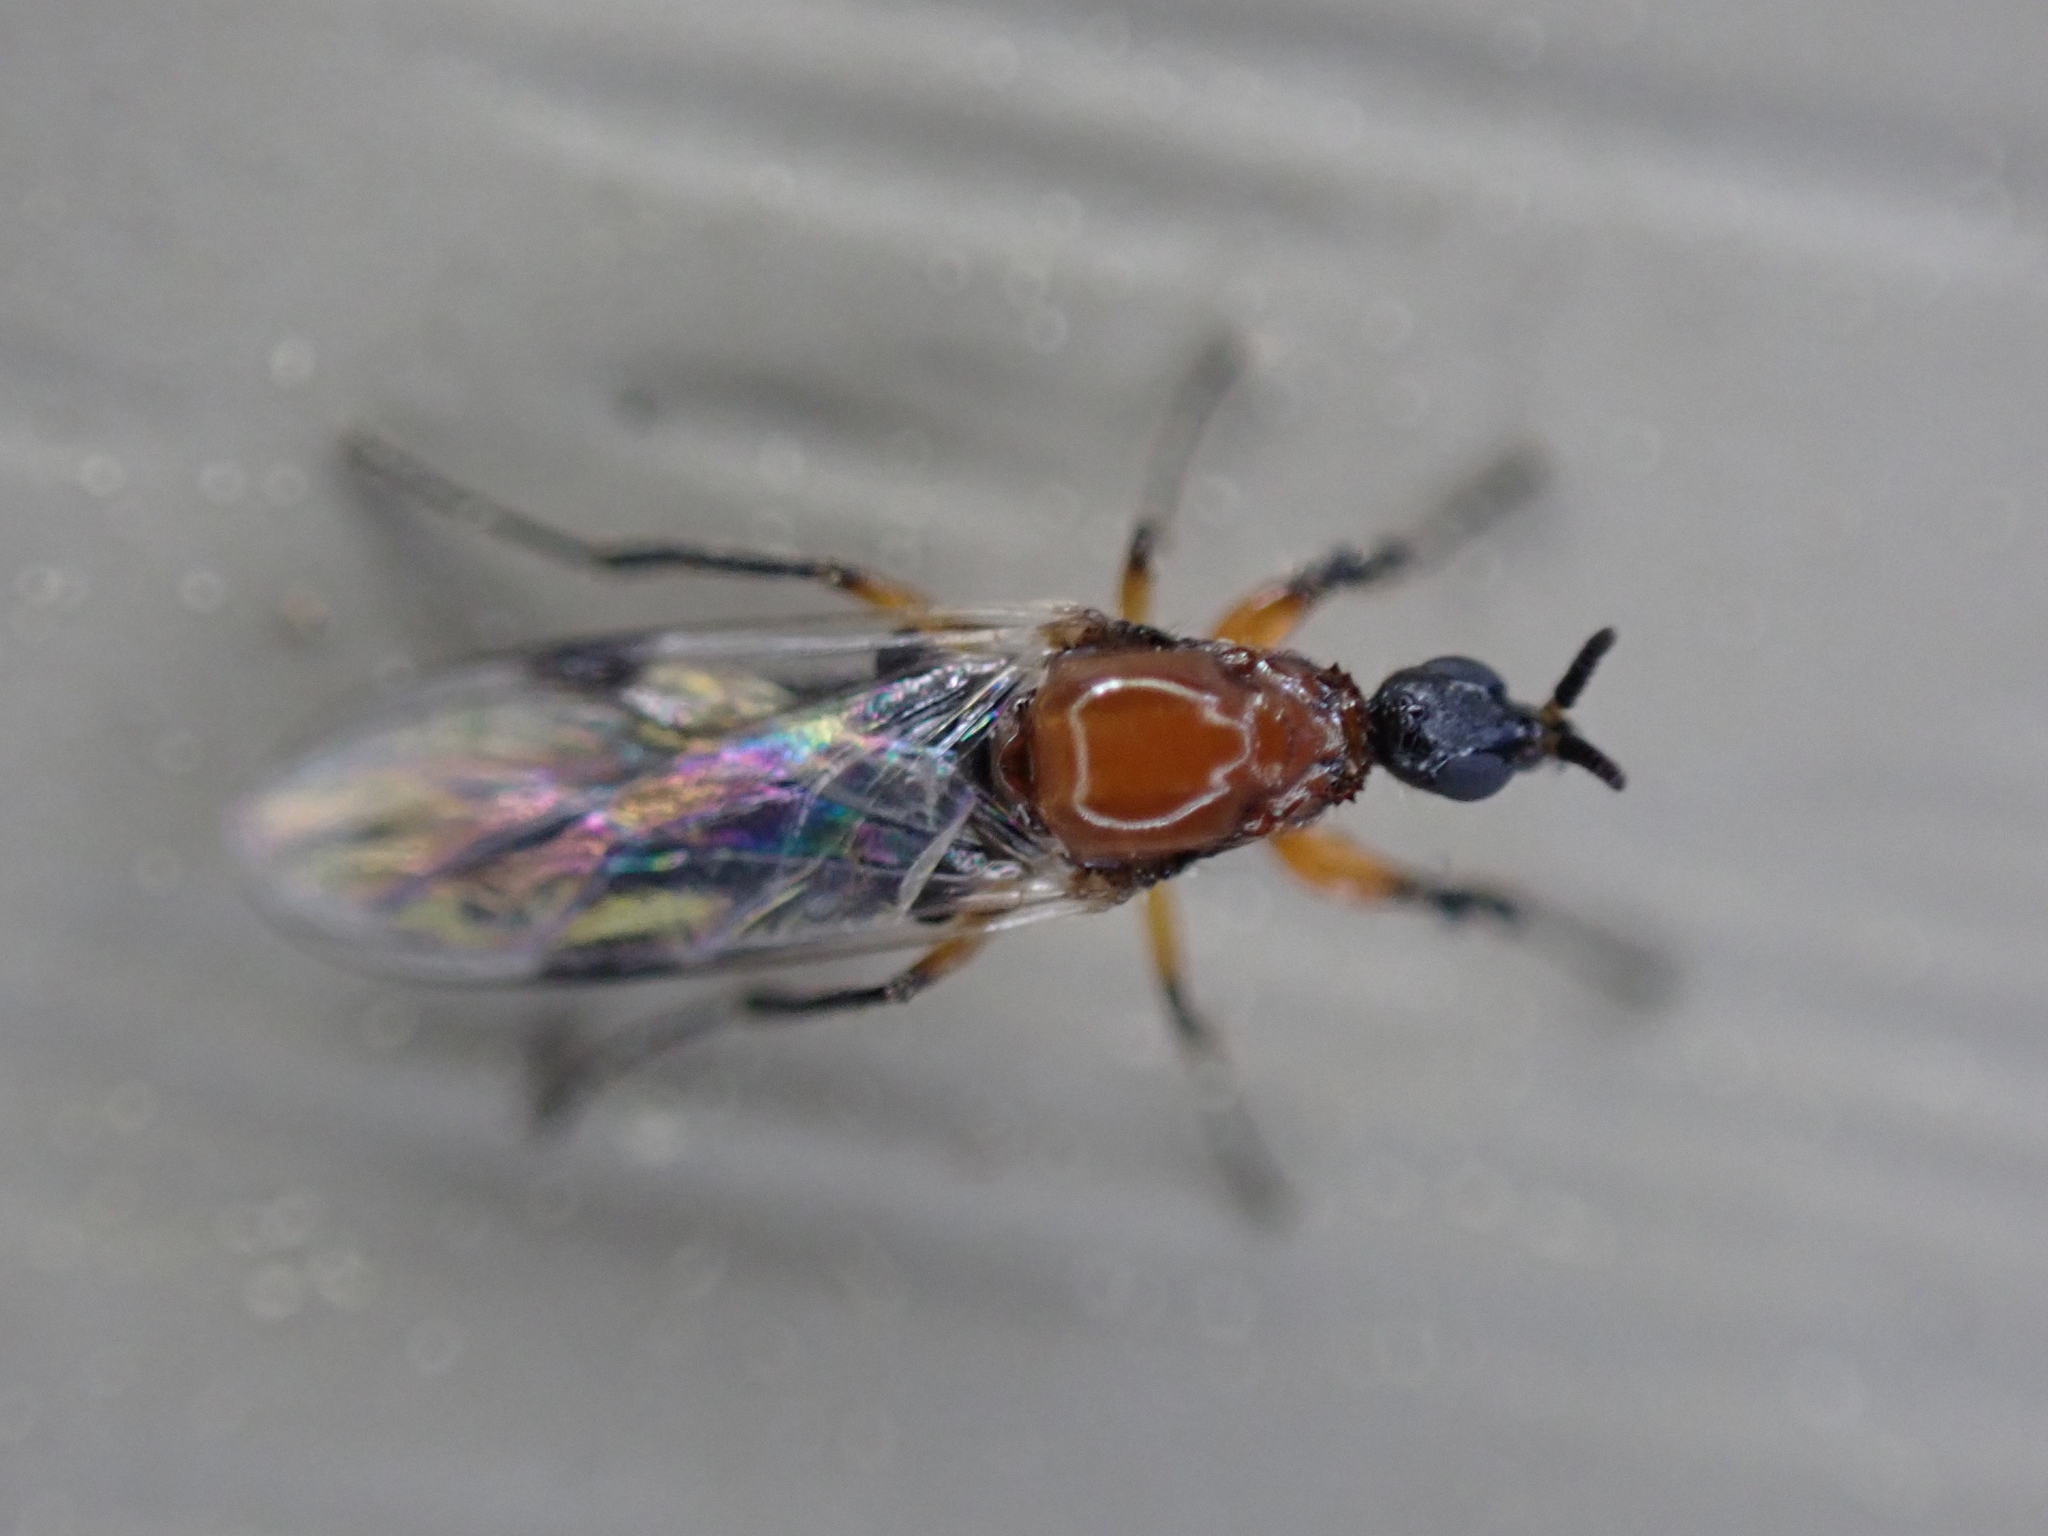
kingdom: Animalia
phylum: Arthropoda
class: Insecta
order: Diptera
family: Bibionidae
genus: Dilophus
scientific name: Dilophus tibialis
